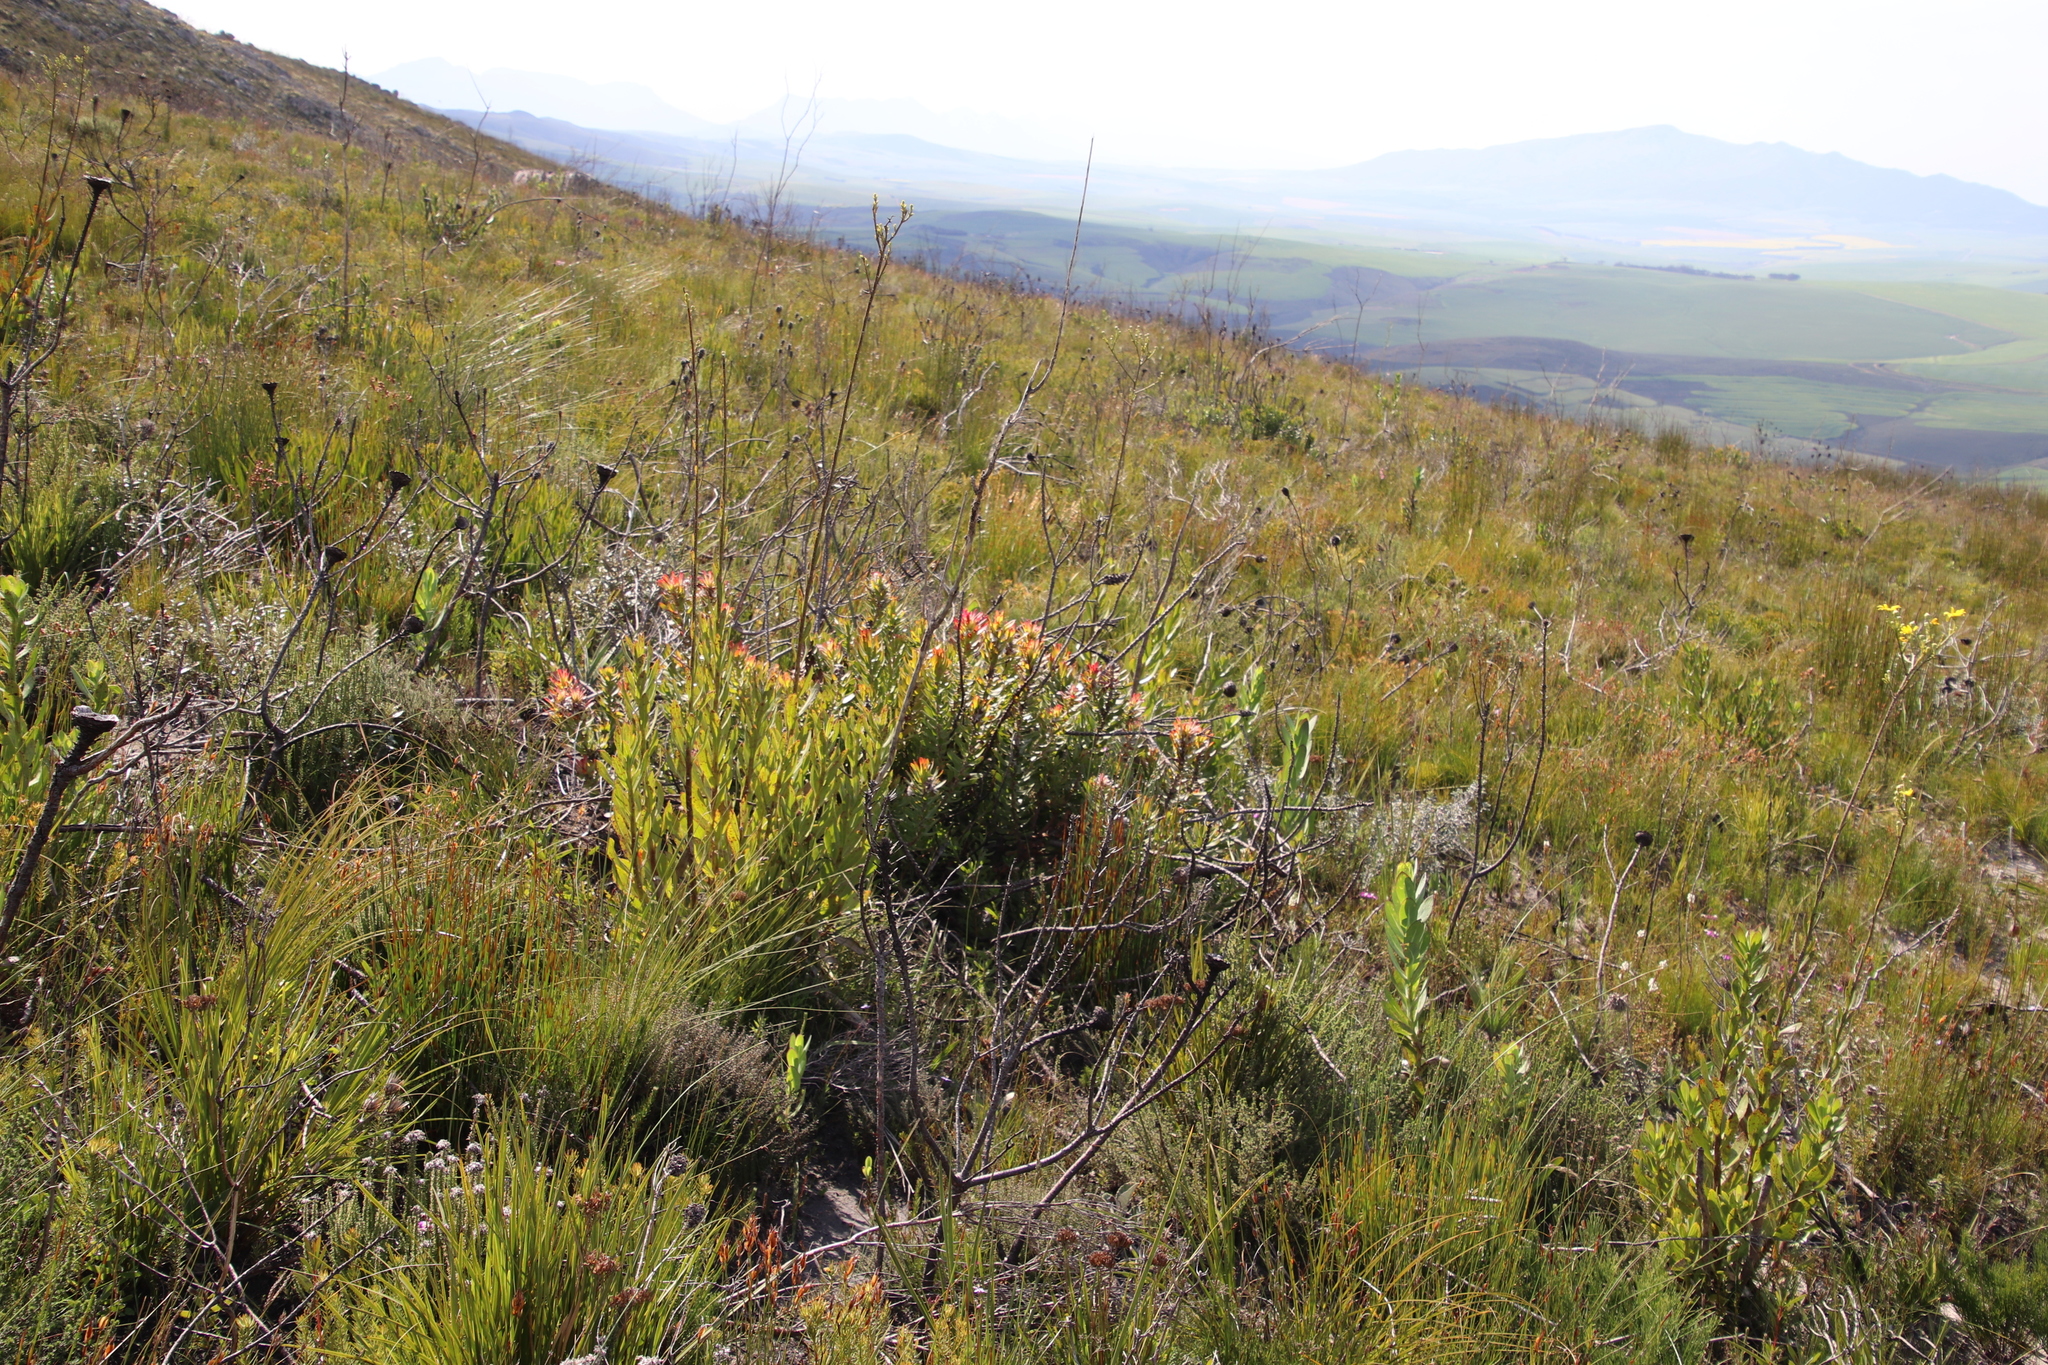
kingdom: Plantae
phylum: Tracheophyta
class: Magnoliopsida
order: Proteales
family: Proteaceae
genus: Mimetes
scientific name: Mimetes cucullatus
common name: Common pagoda
